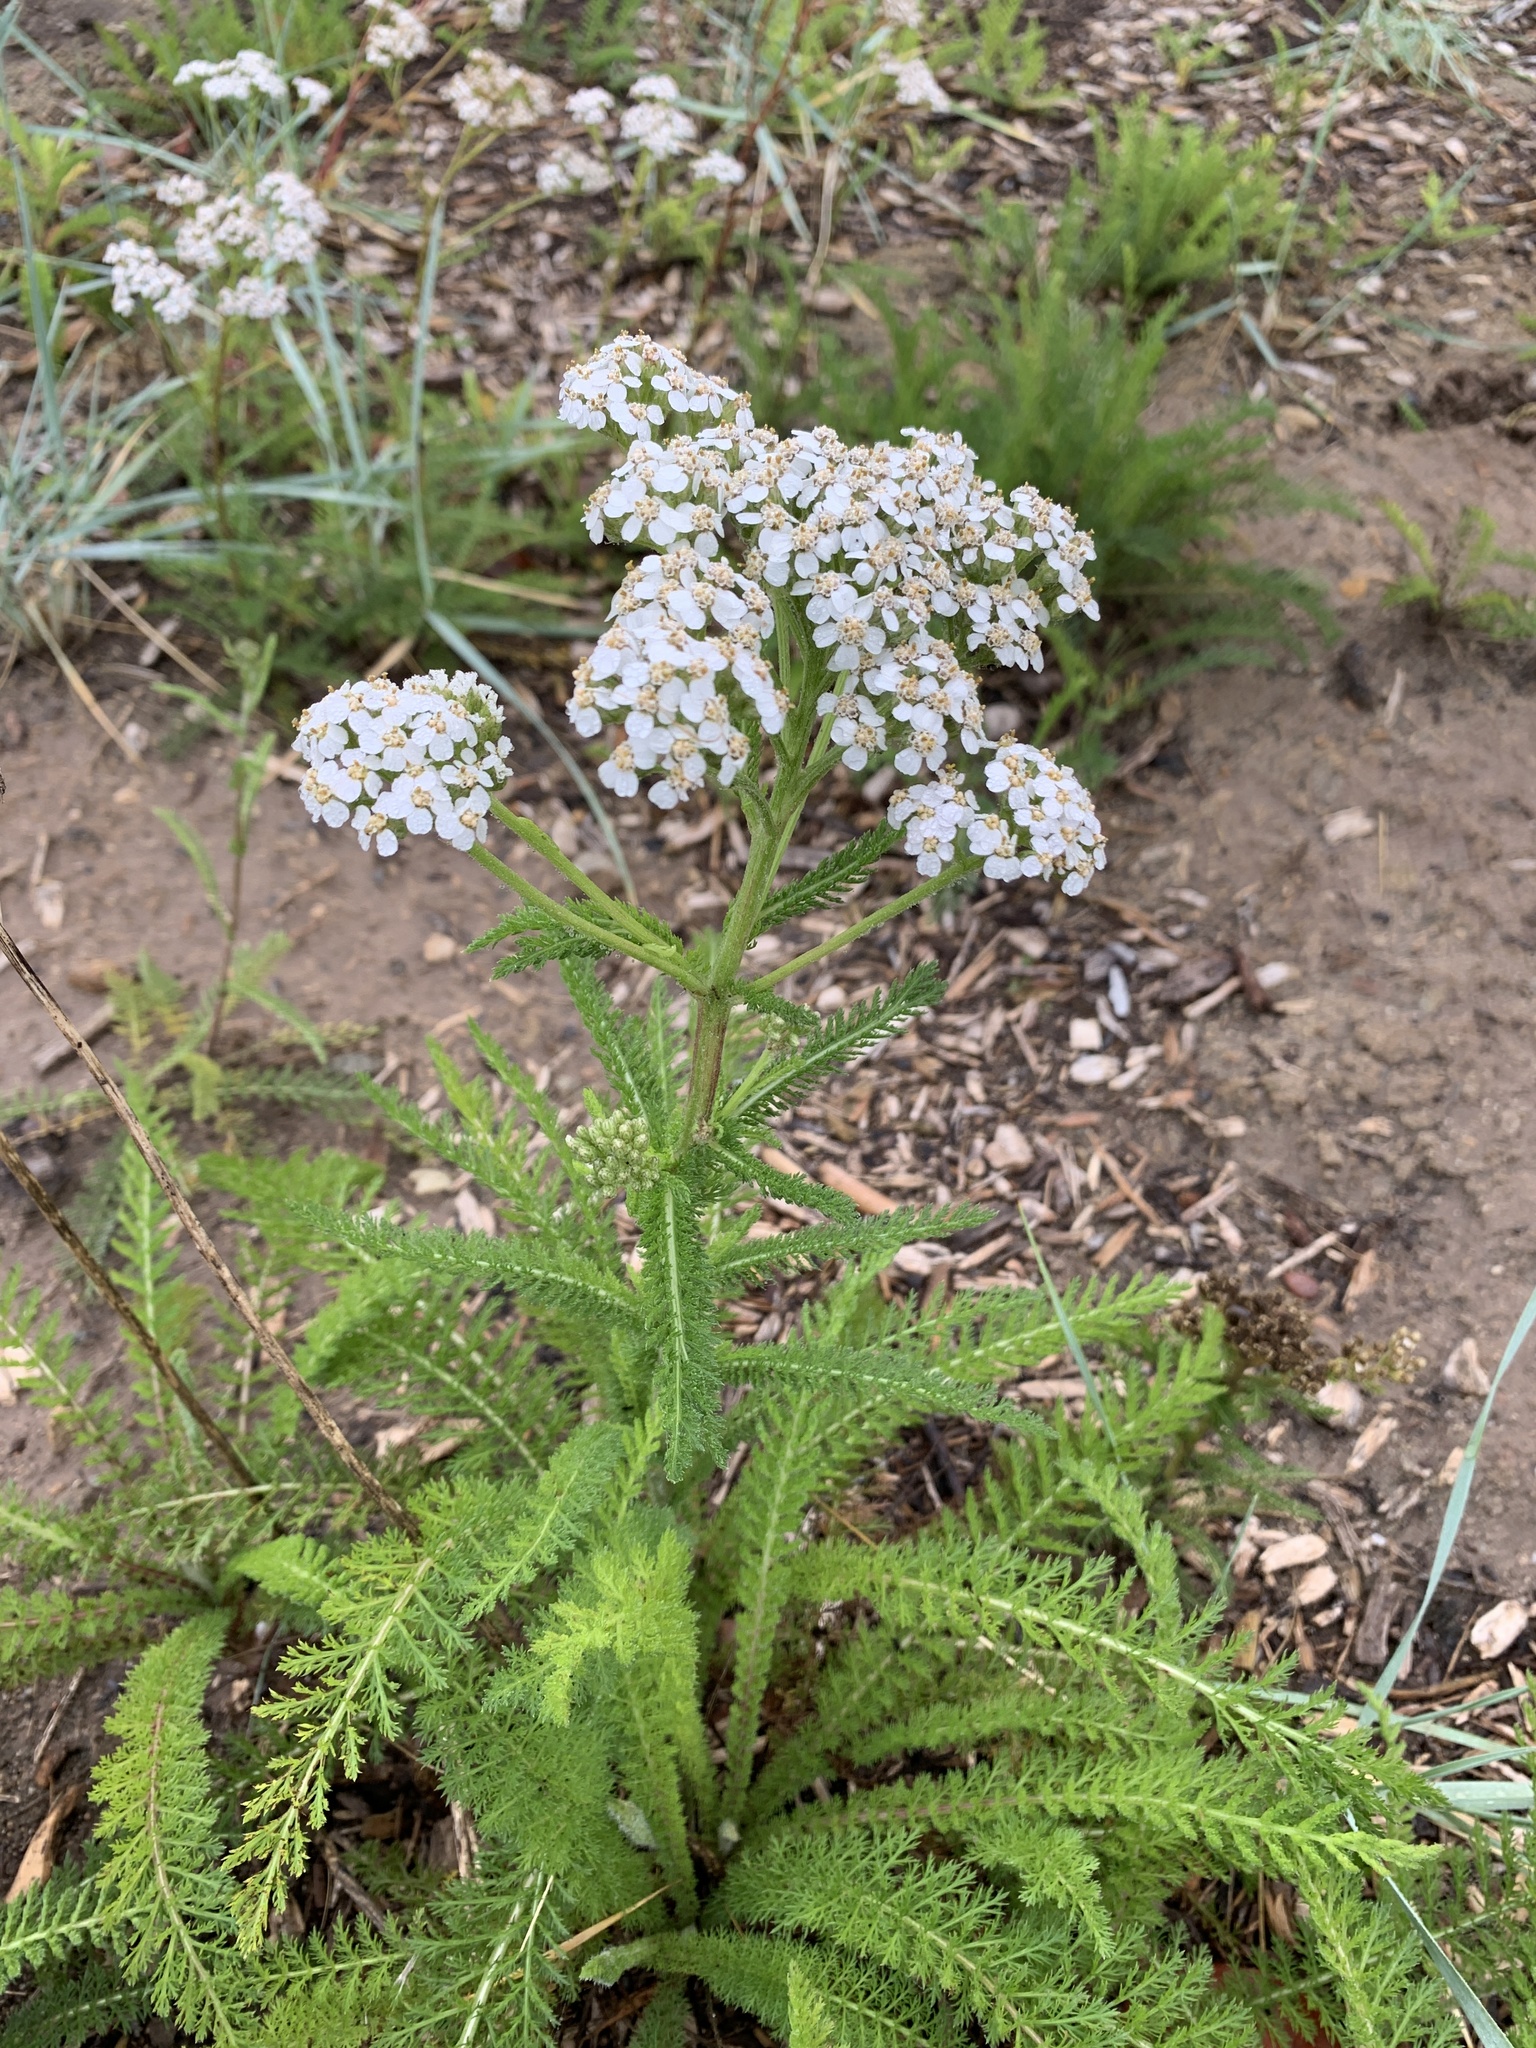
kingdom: Plantae
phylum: Tracheophyta
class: Magnoliopsida
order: Asterales
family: Asteraceae
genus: Achillea
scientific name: Achillea millefolium
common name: Yarrow
